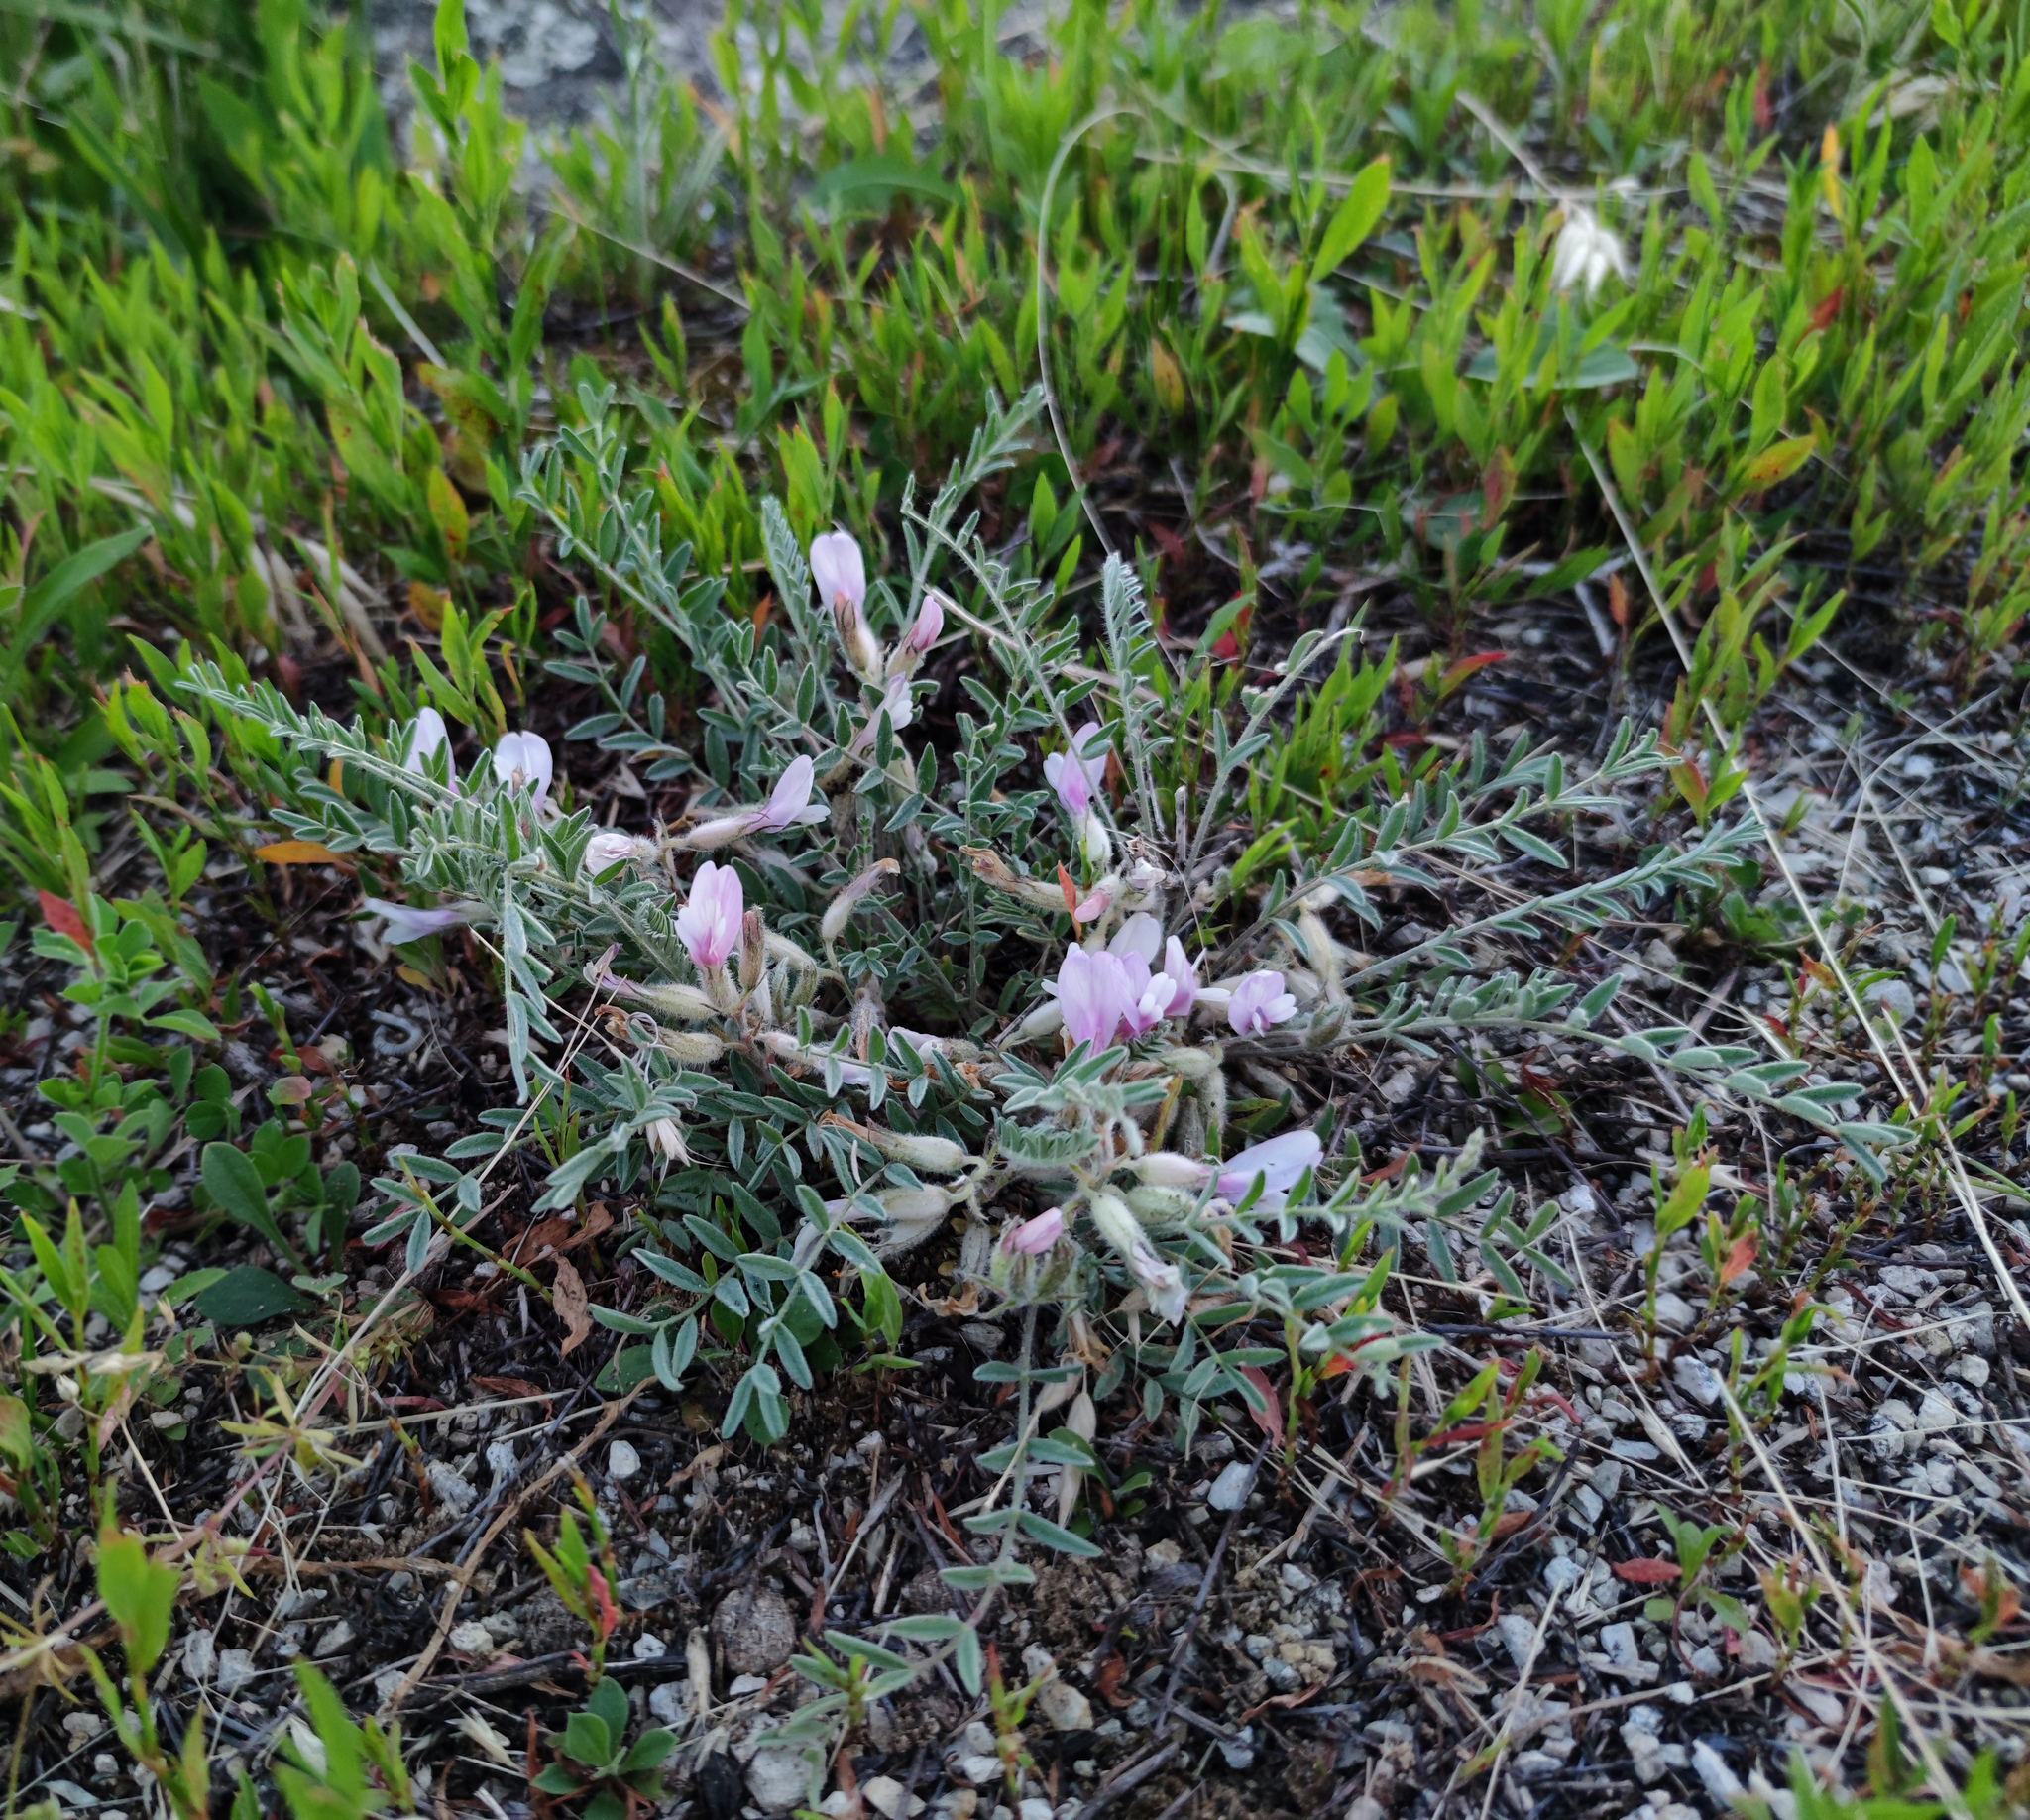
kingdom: Plantae
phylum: Tracheophyta
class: Magnoliopsida
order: Fabales
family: Fabaceae
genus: Astragalus
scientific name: Astragalus rupifragus
